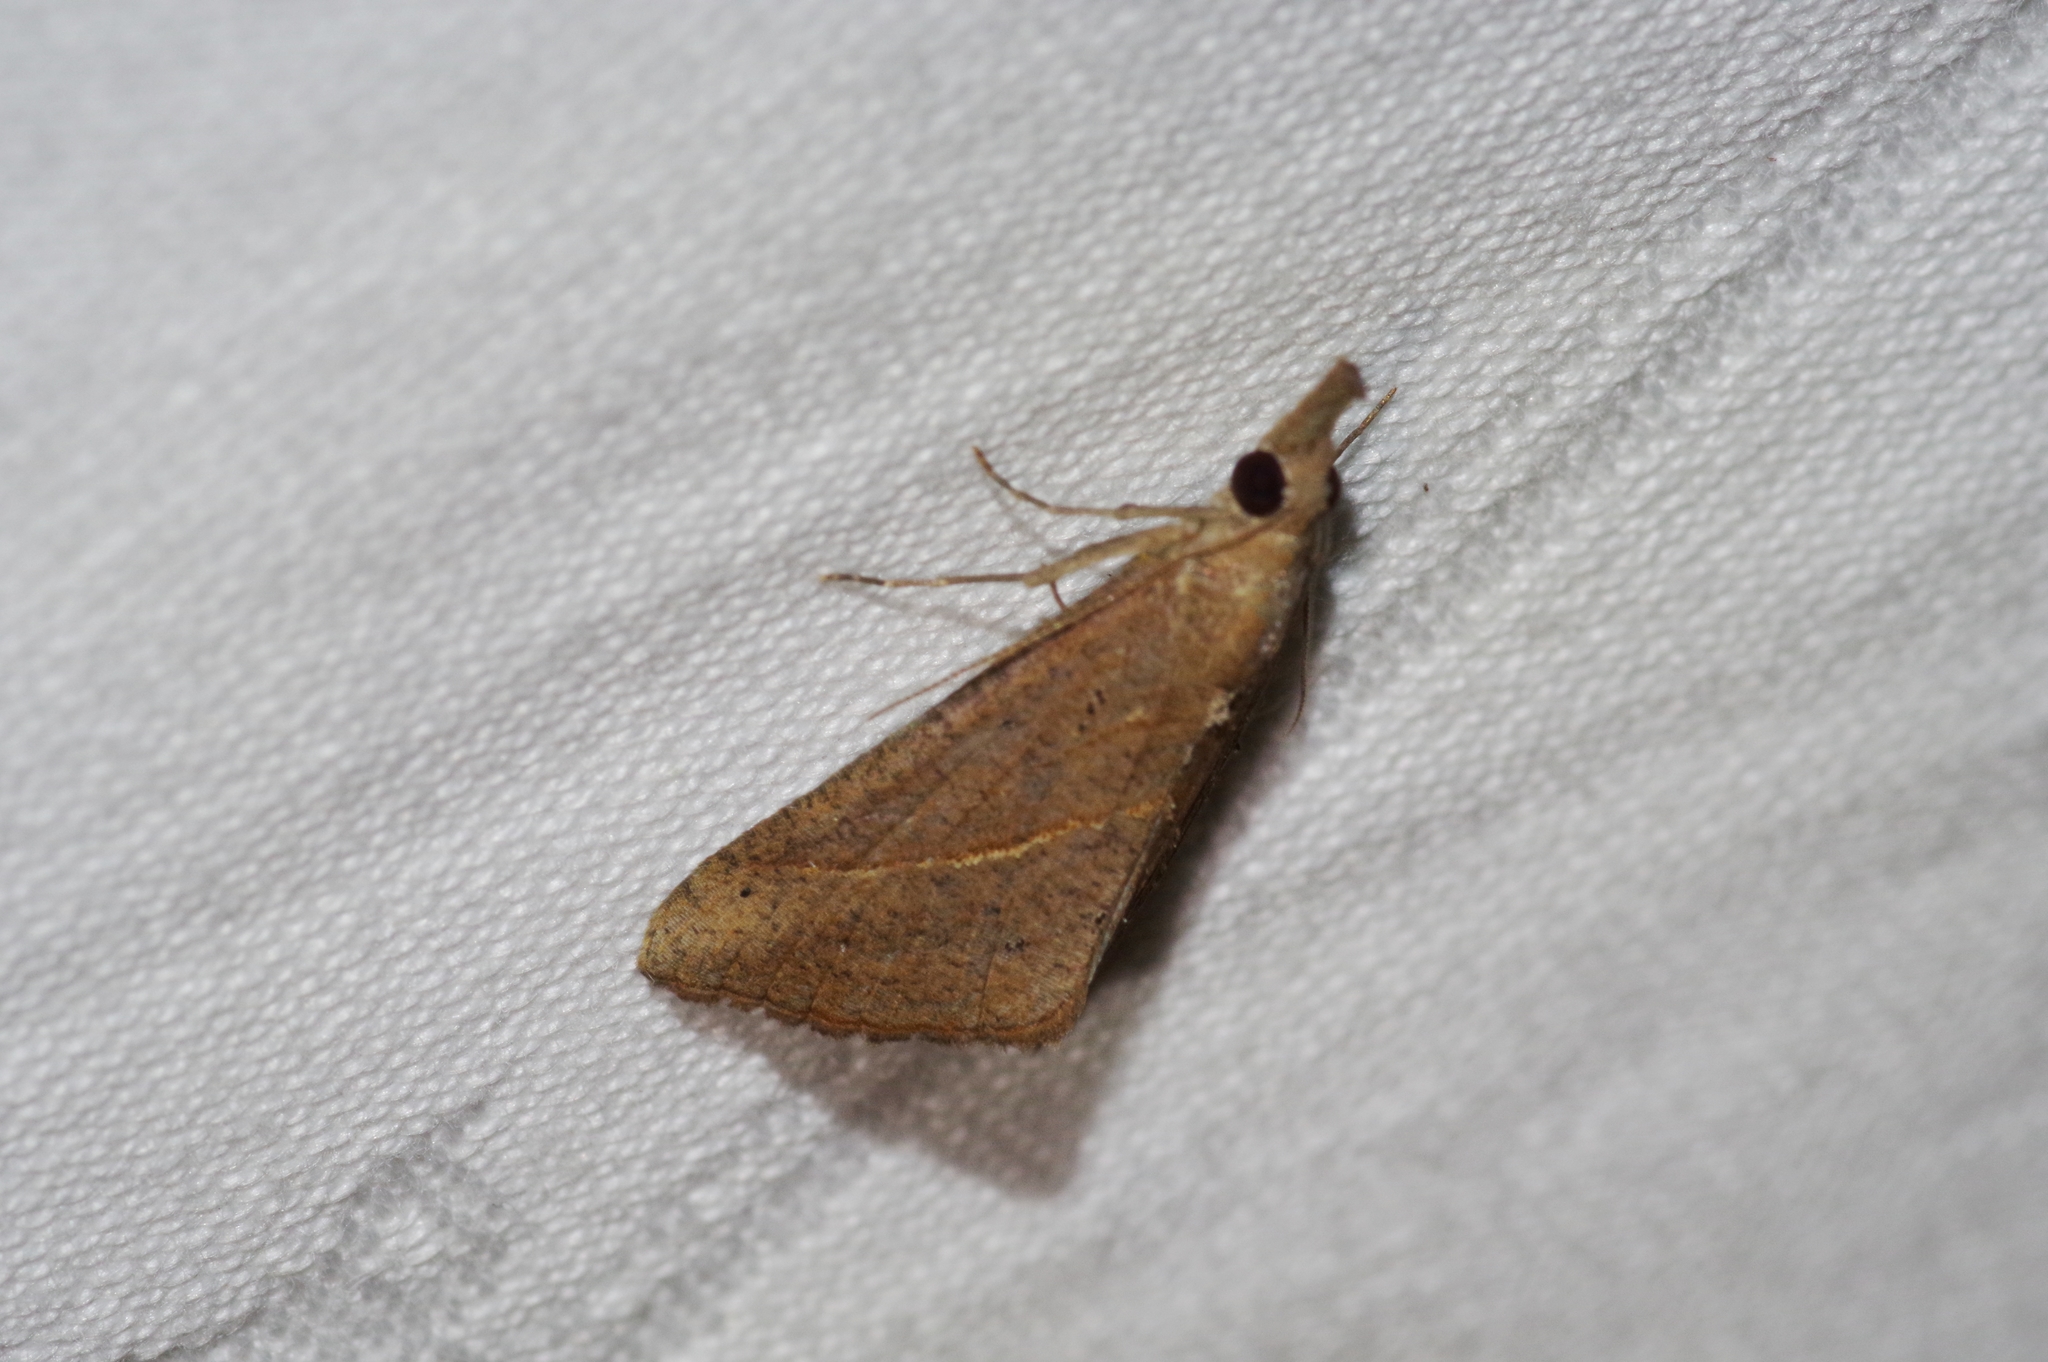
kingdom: Animalia
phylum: Arthropoda
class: Insecta
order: Lepidoptera
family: Erebidae
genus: Hypena
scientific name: Hypena lividalis
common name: Chevron snout
